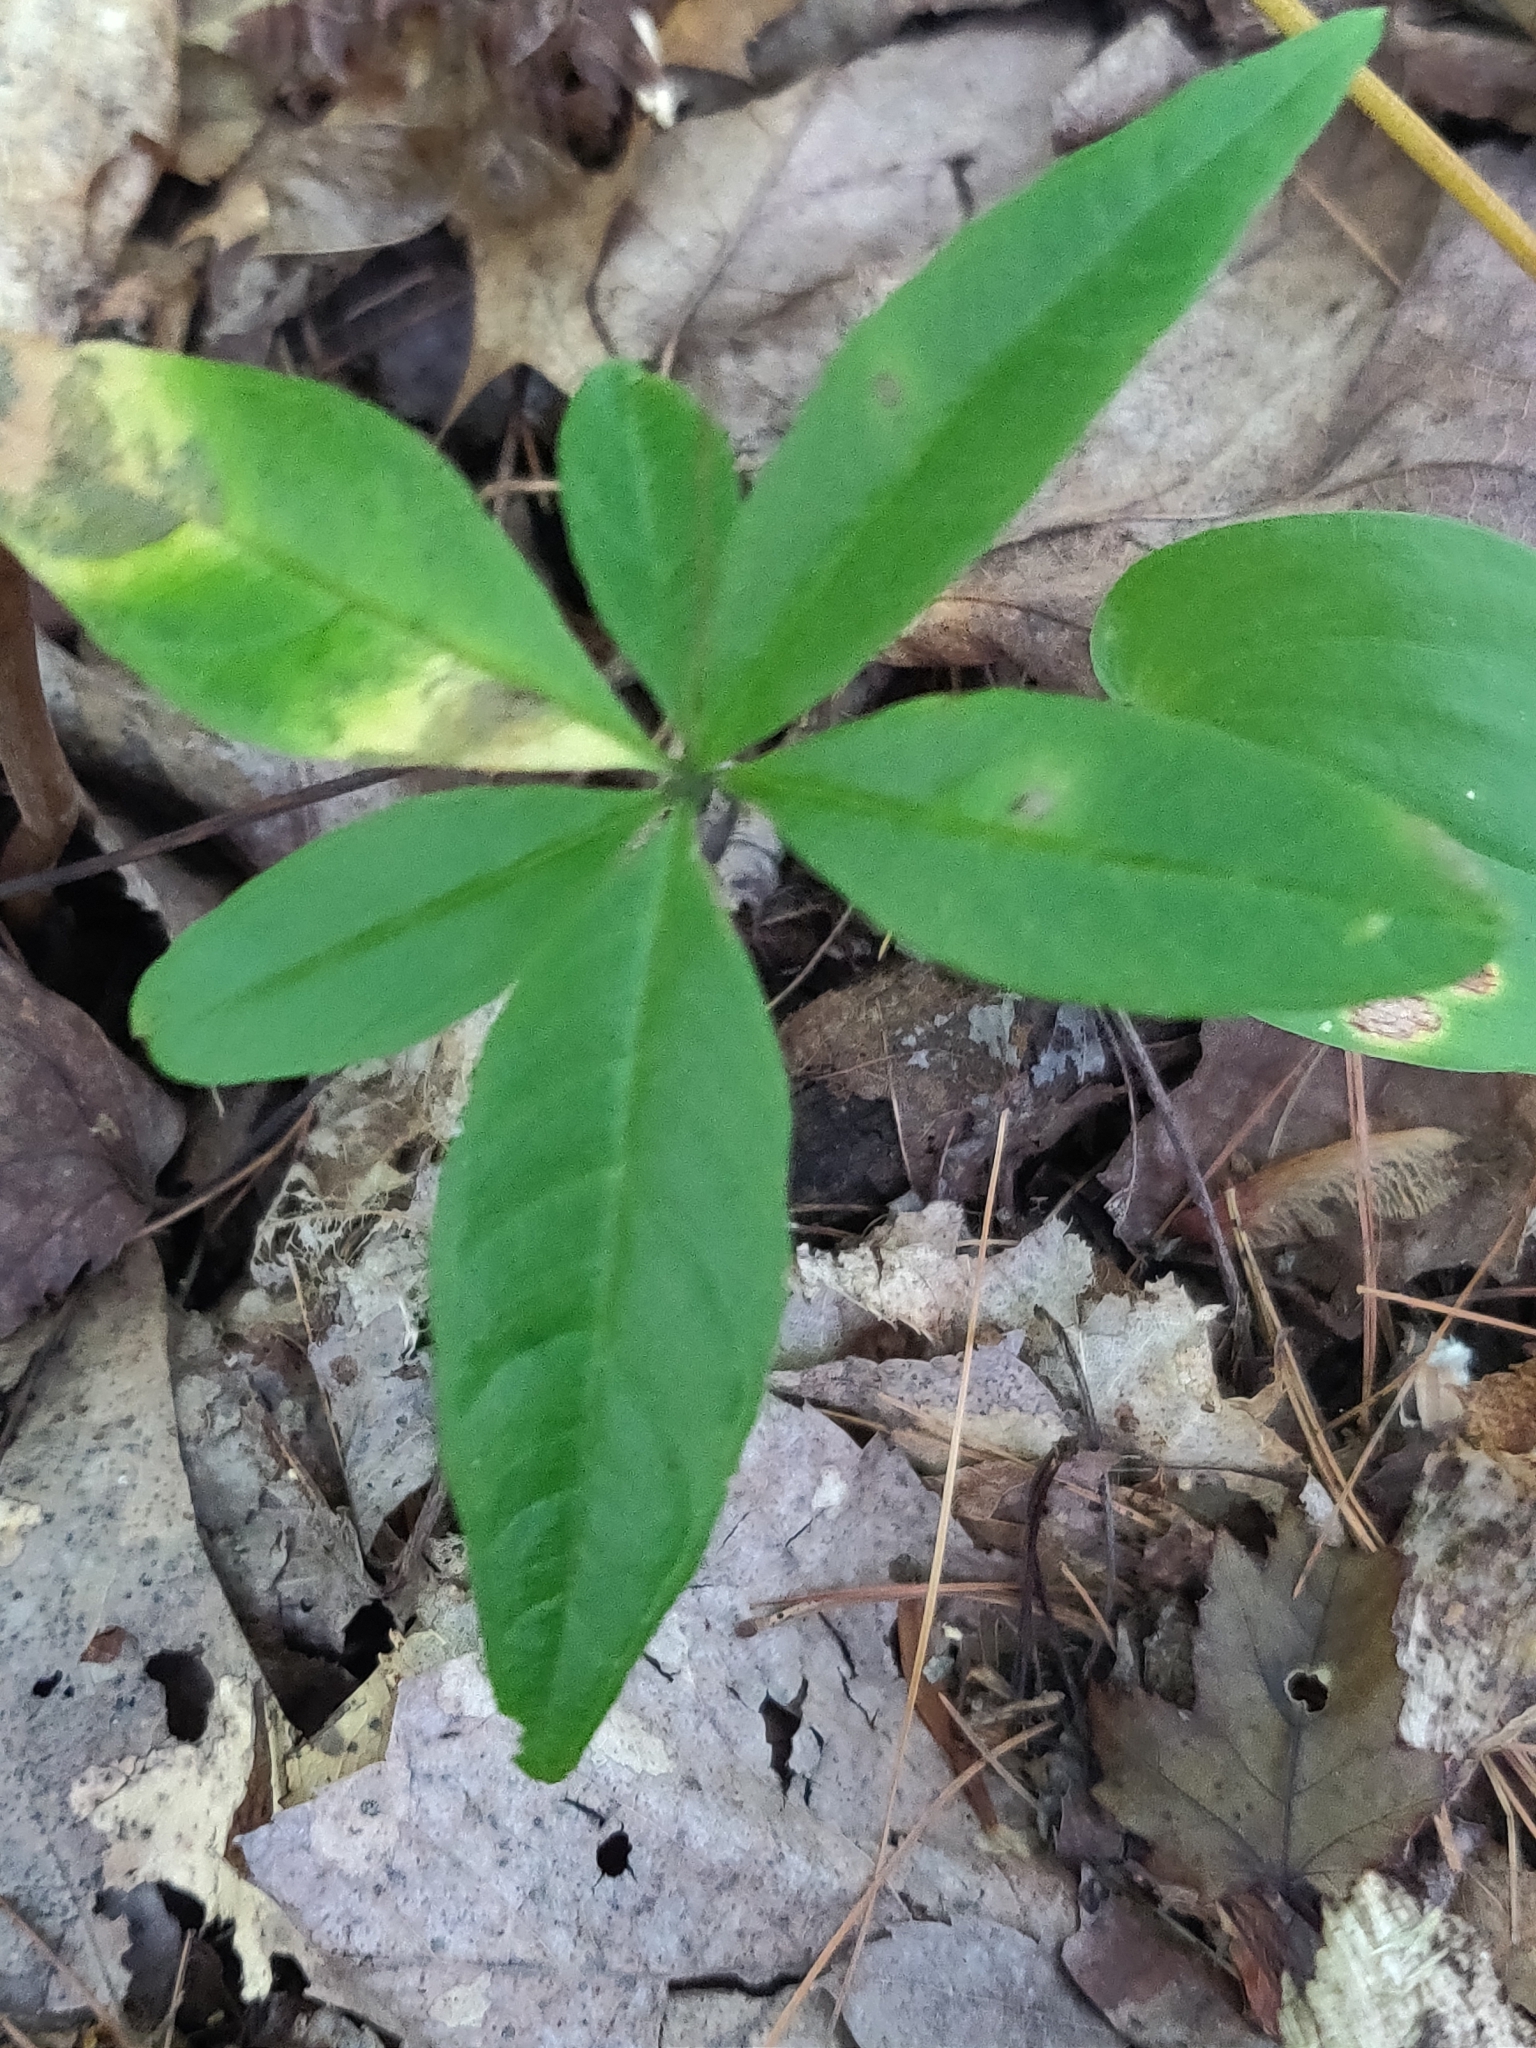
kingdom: Plantae
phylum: Tracheophyta
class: Magnoliopsida
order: Ericales
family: Primulaceae
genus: Lysimachia
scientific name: Lysimachia borealis
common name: American starflower
